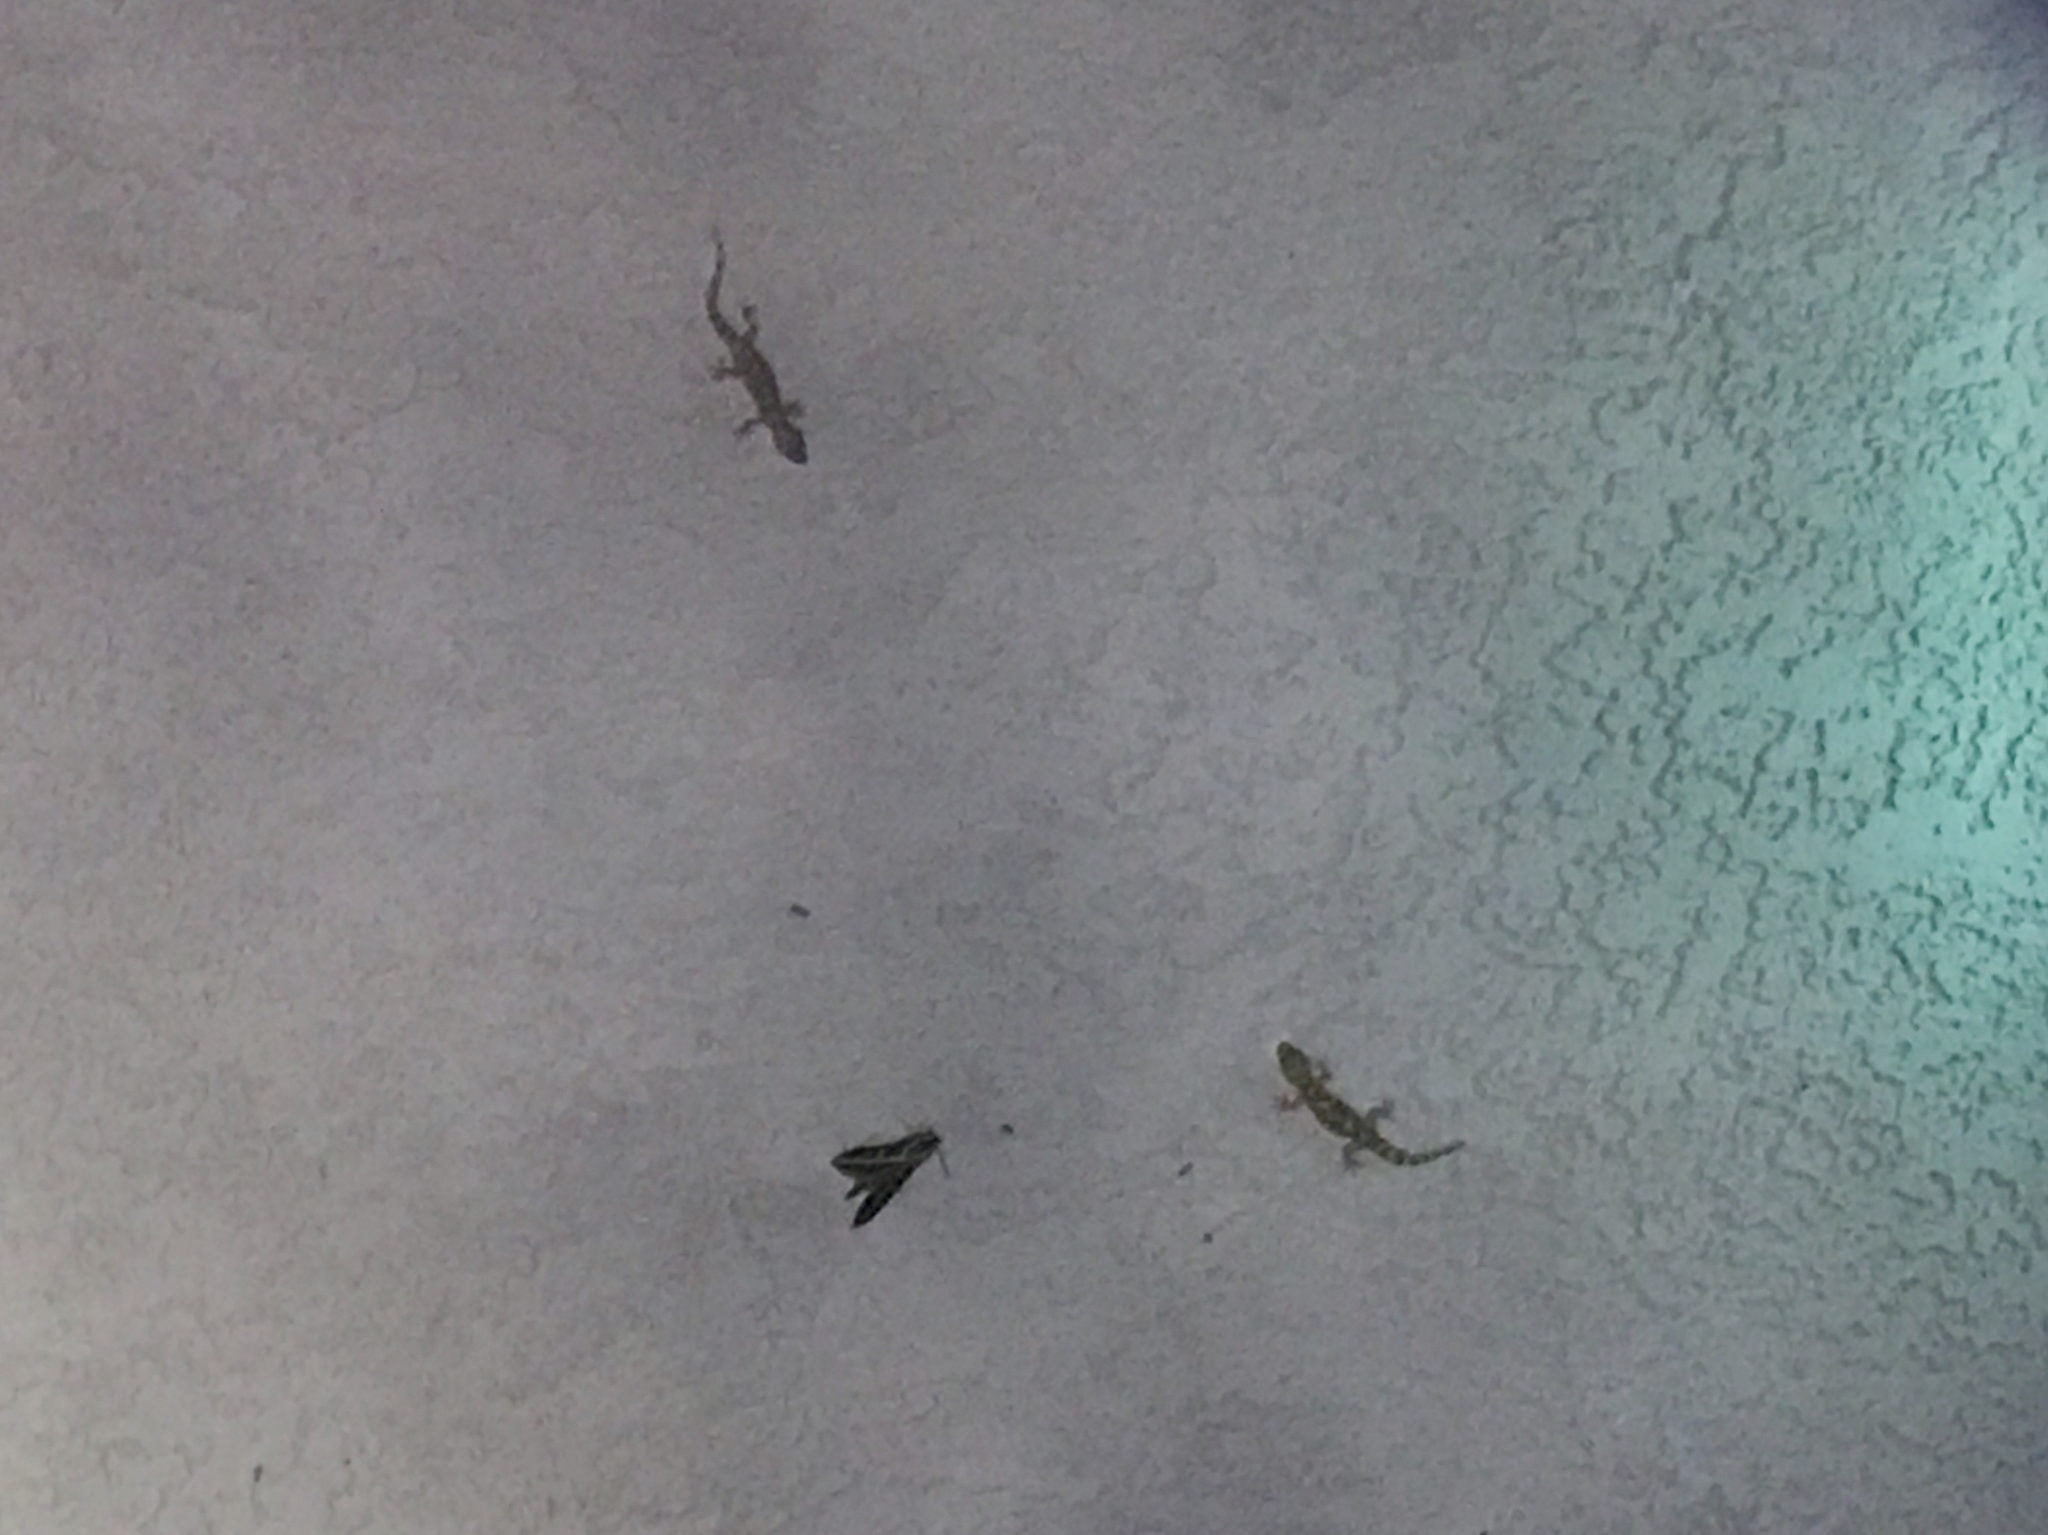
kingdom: Animalia
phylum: Chordata
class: Squamata
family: Gekkonidae
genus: Hemidactylus
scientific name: Hemidactylus turcicus
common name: Turkish gecko
